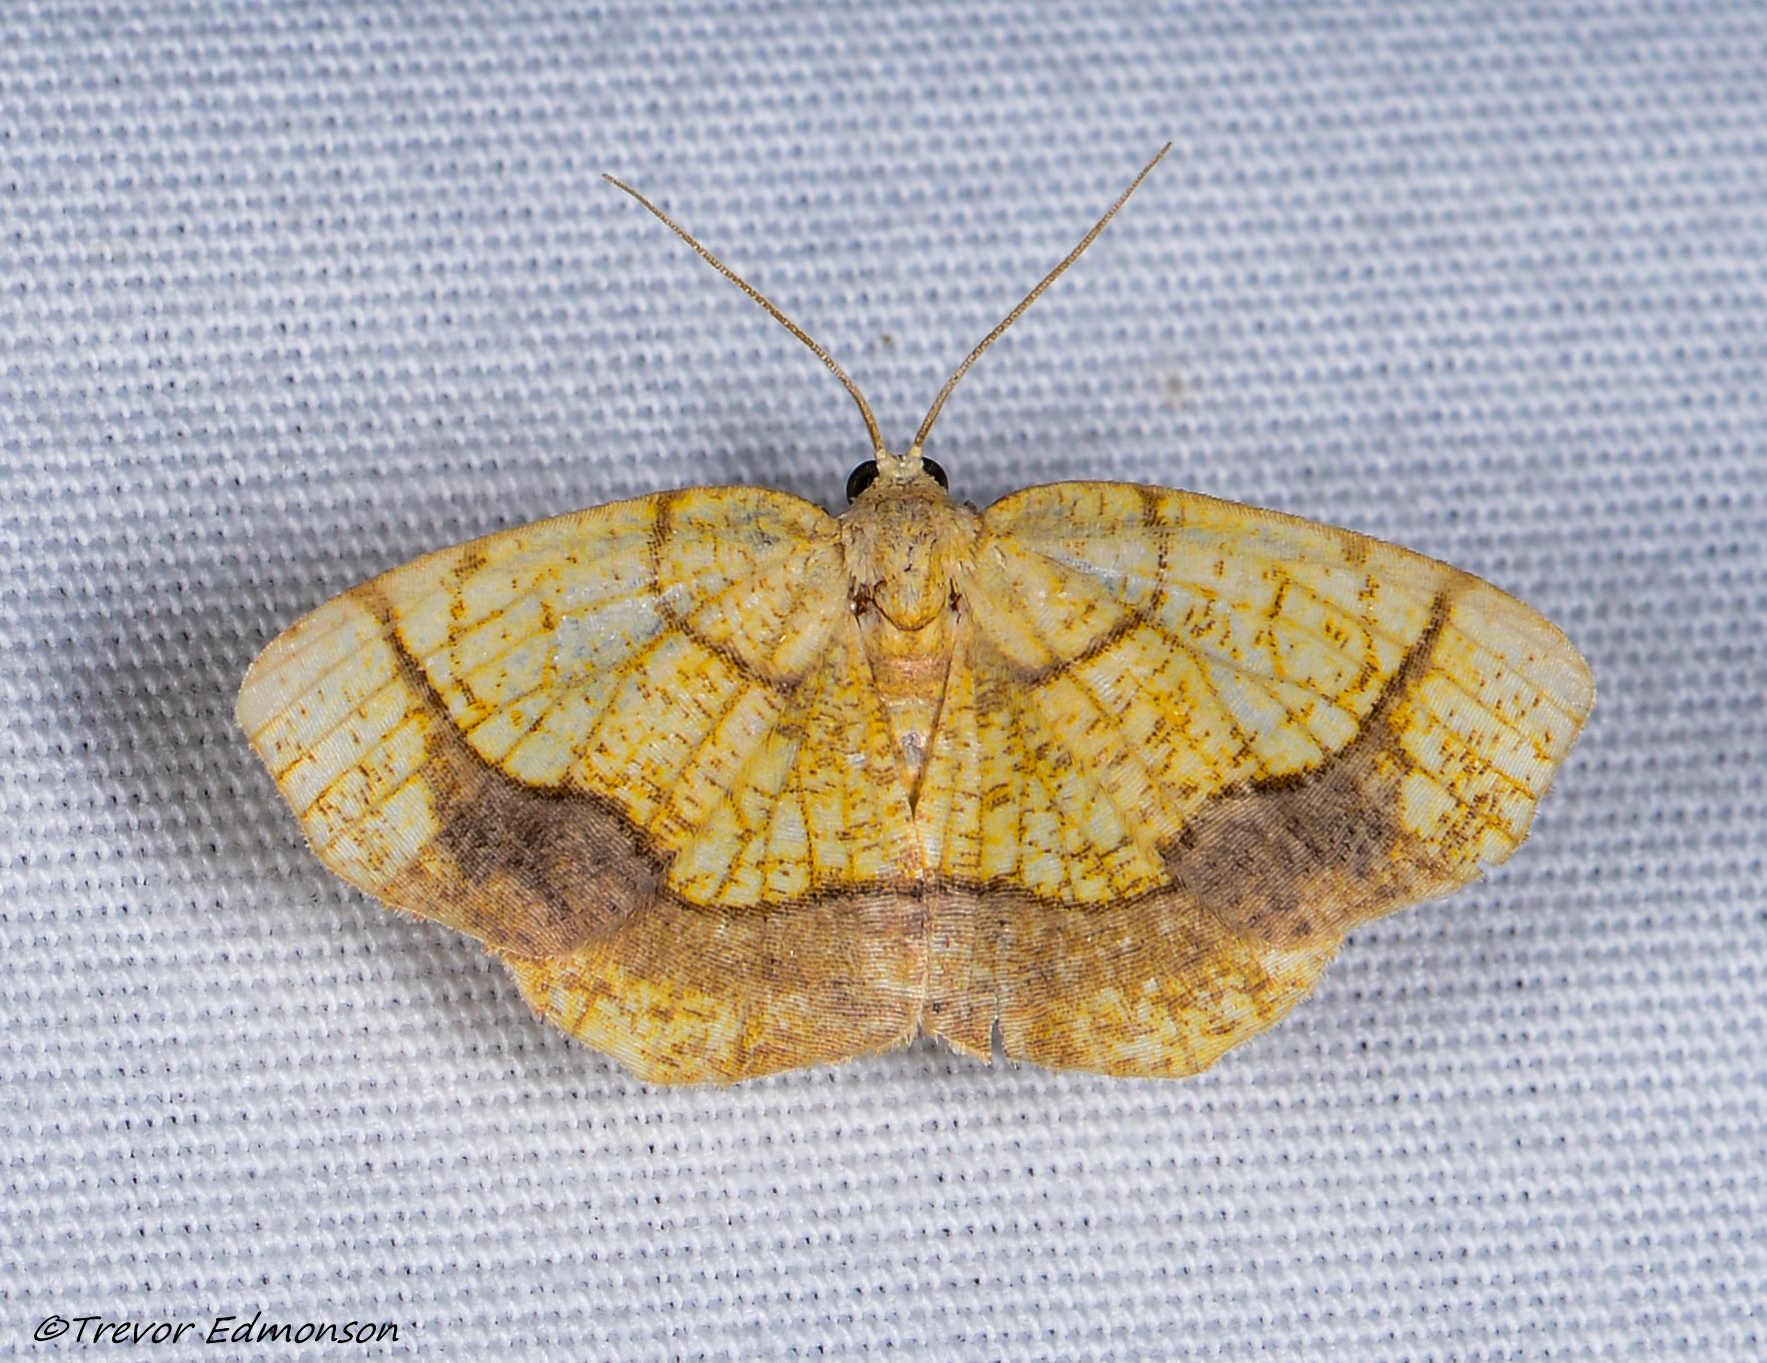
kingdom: Animalia
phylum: Arthropoda
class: Insecta
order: Lepidoptera
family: Geometridae
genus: Nematocampa
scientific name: Nematocampa resistaria
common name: Horned spanworm moth
